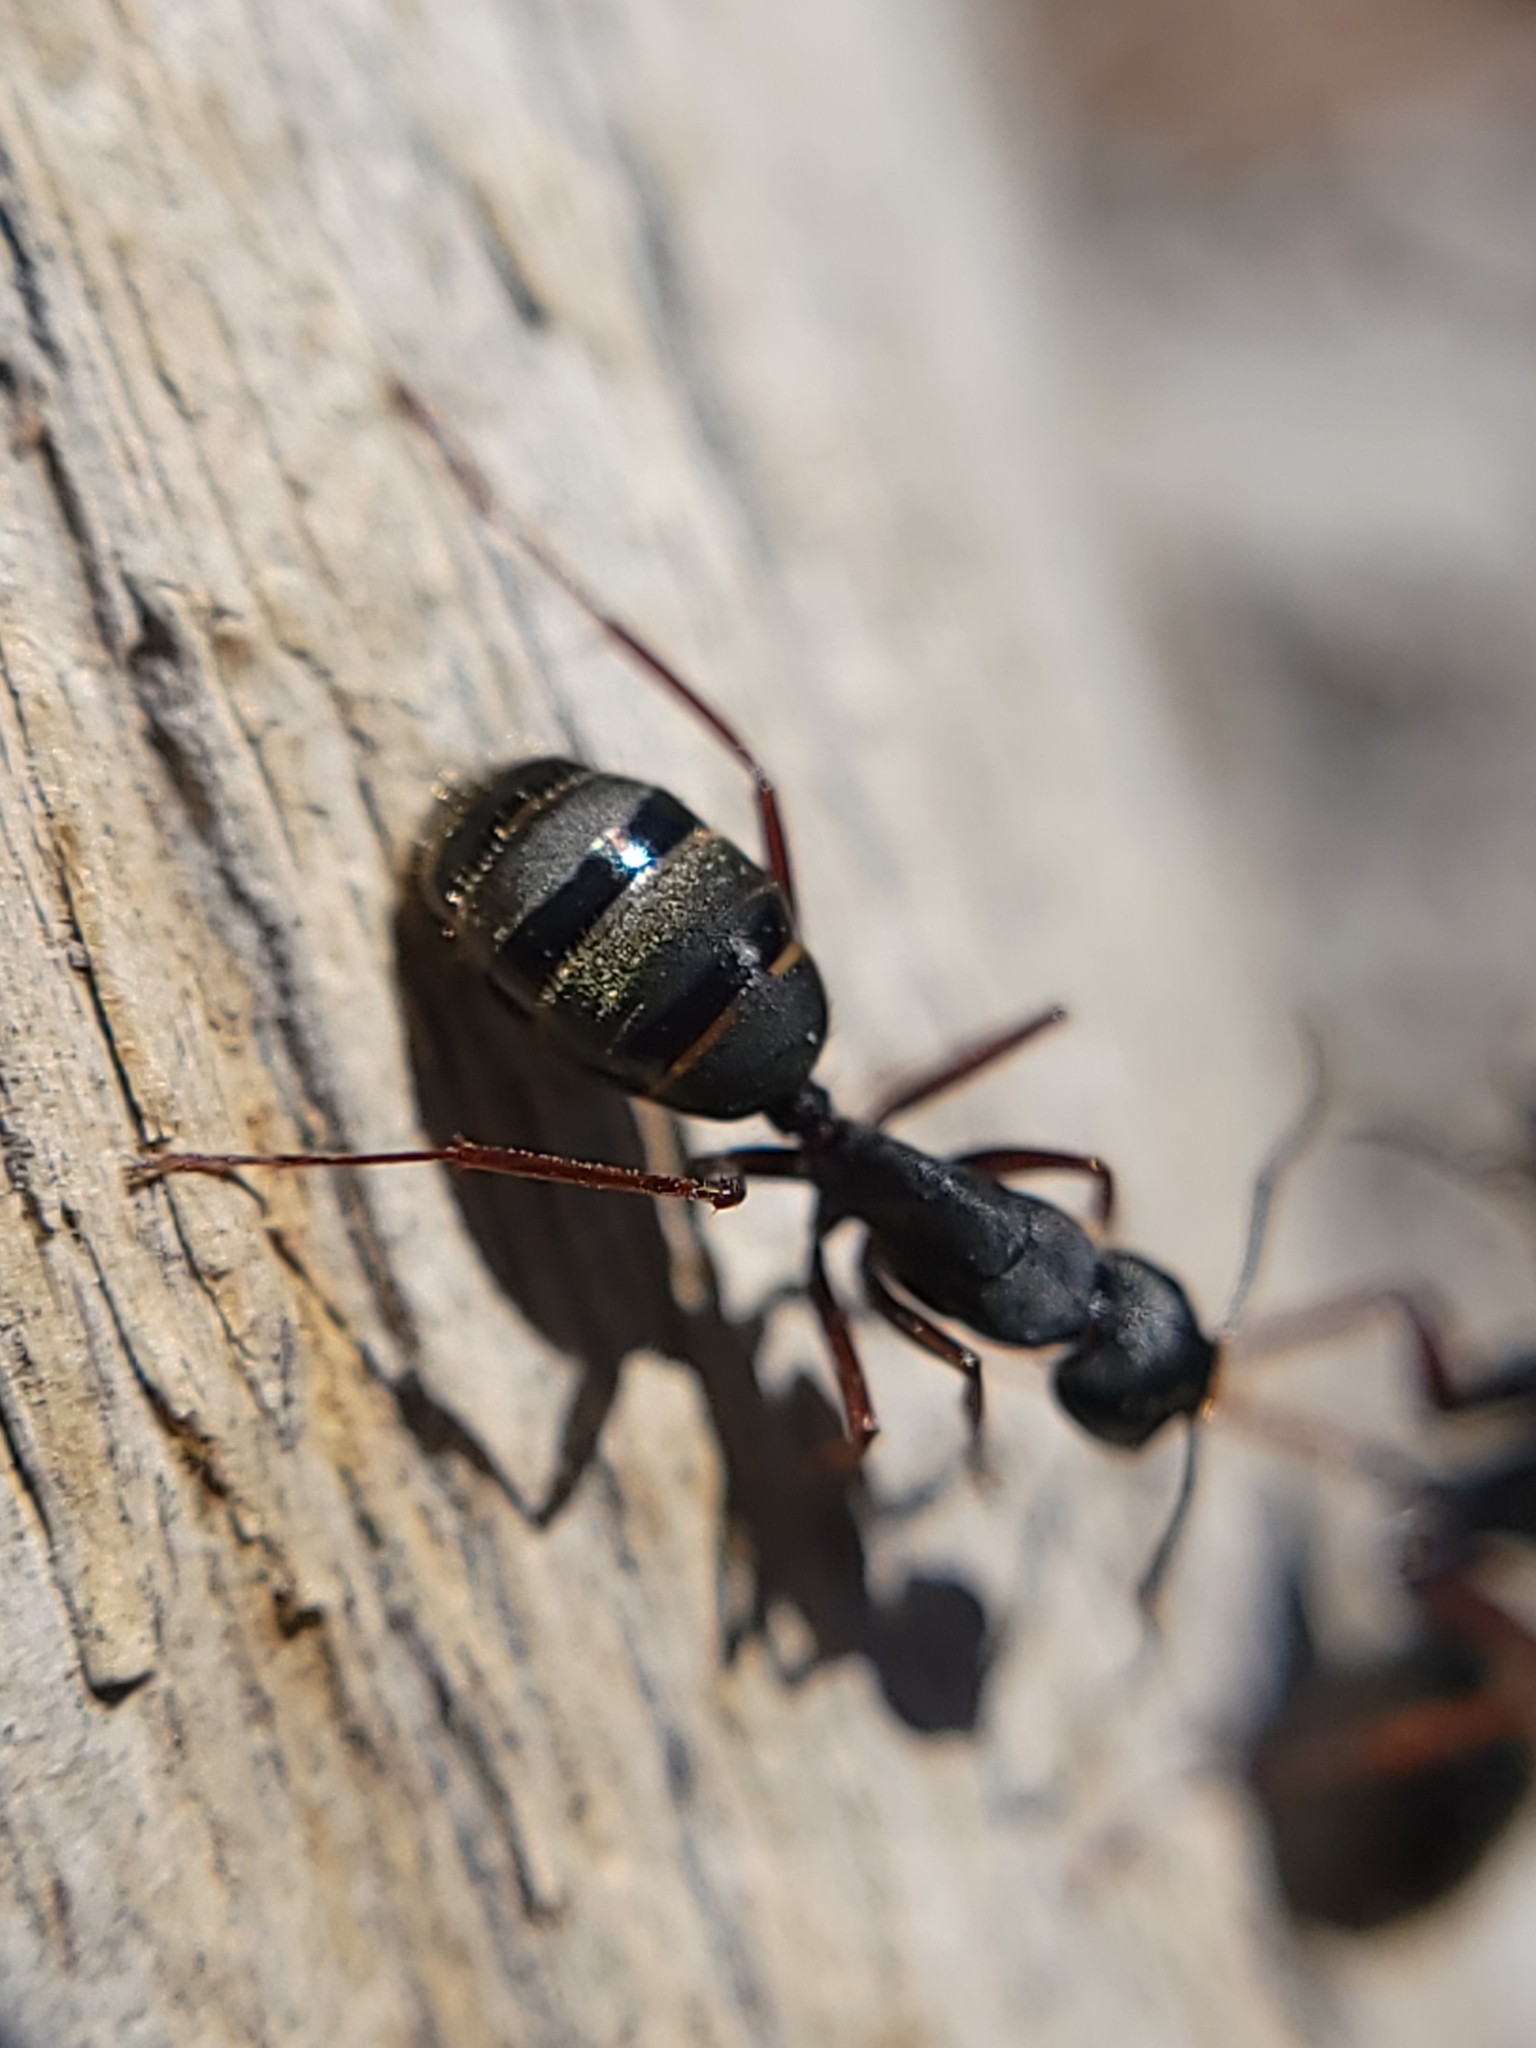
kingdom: Animalia
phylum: Arthropoda
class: Insecta
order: Hymenoptera
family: Formicidae
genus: Camponotus
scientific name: Camponotus modoc
